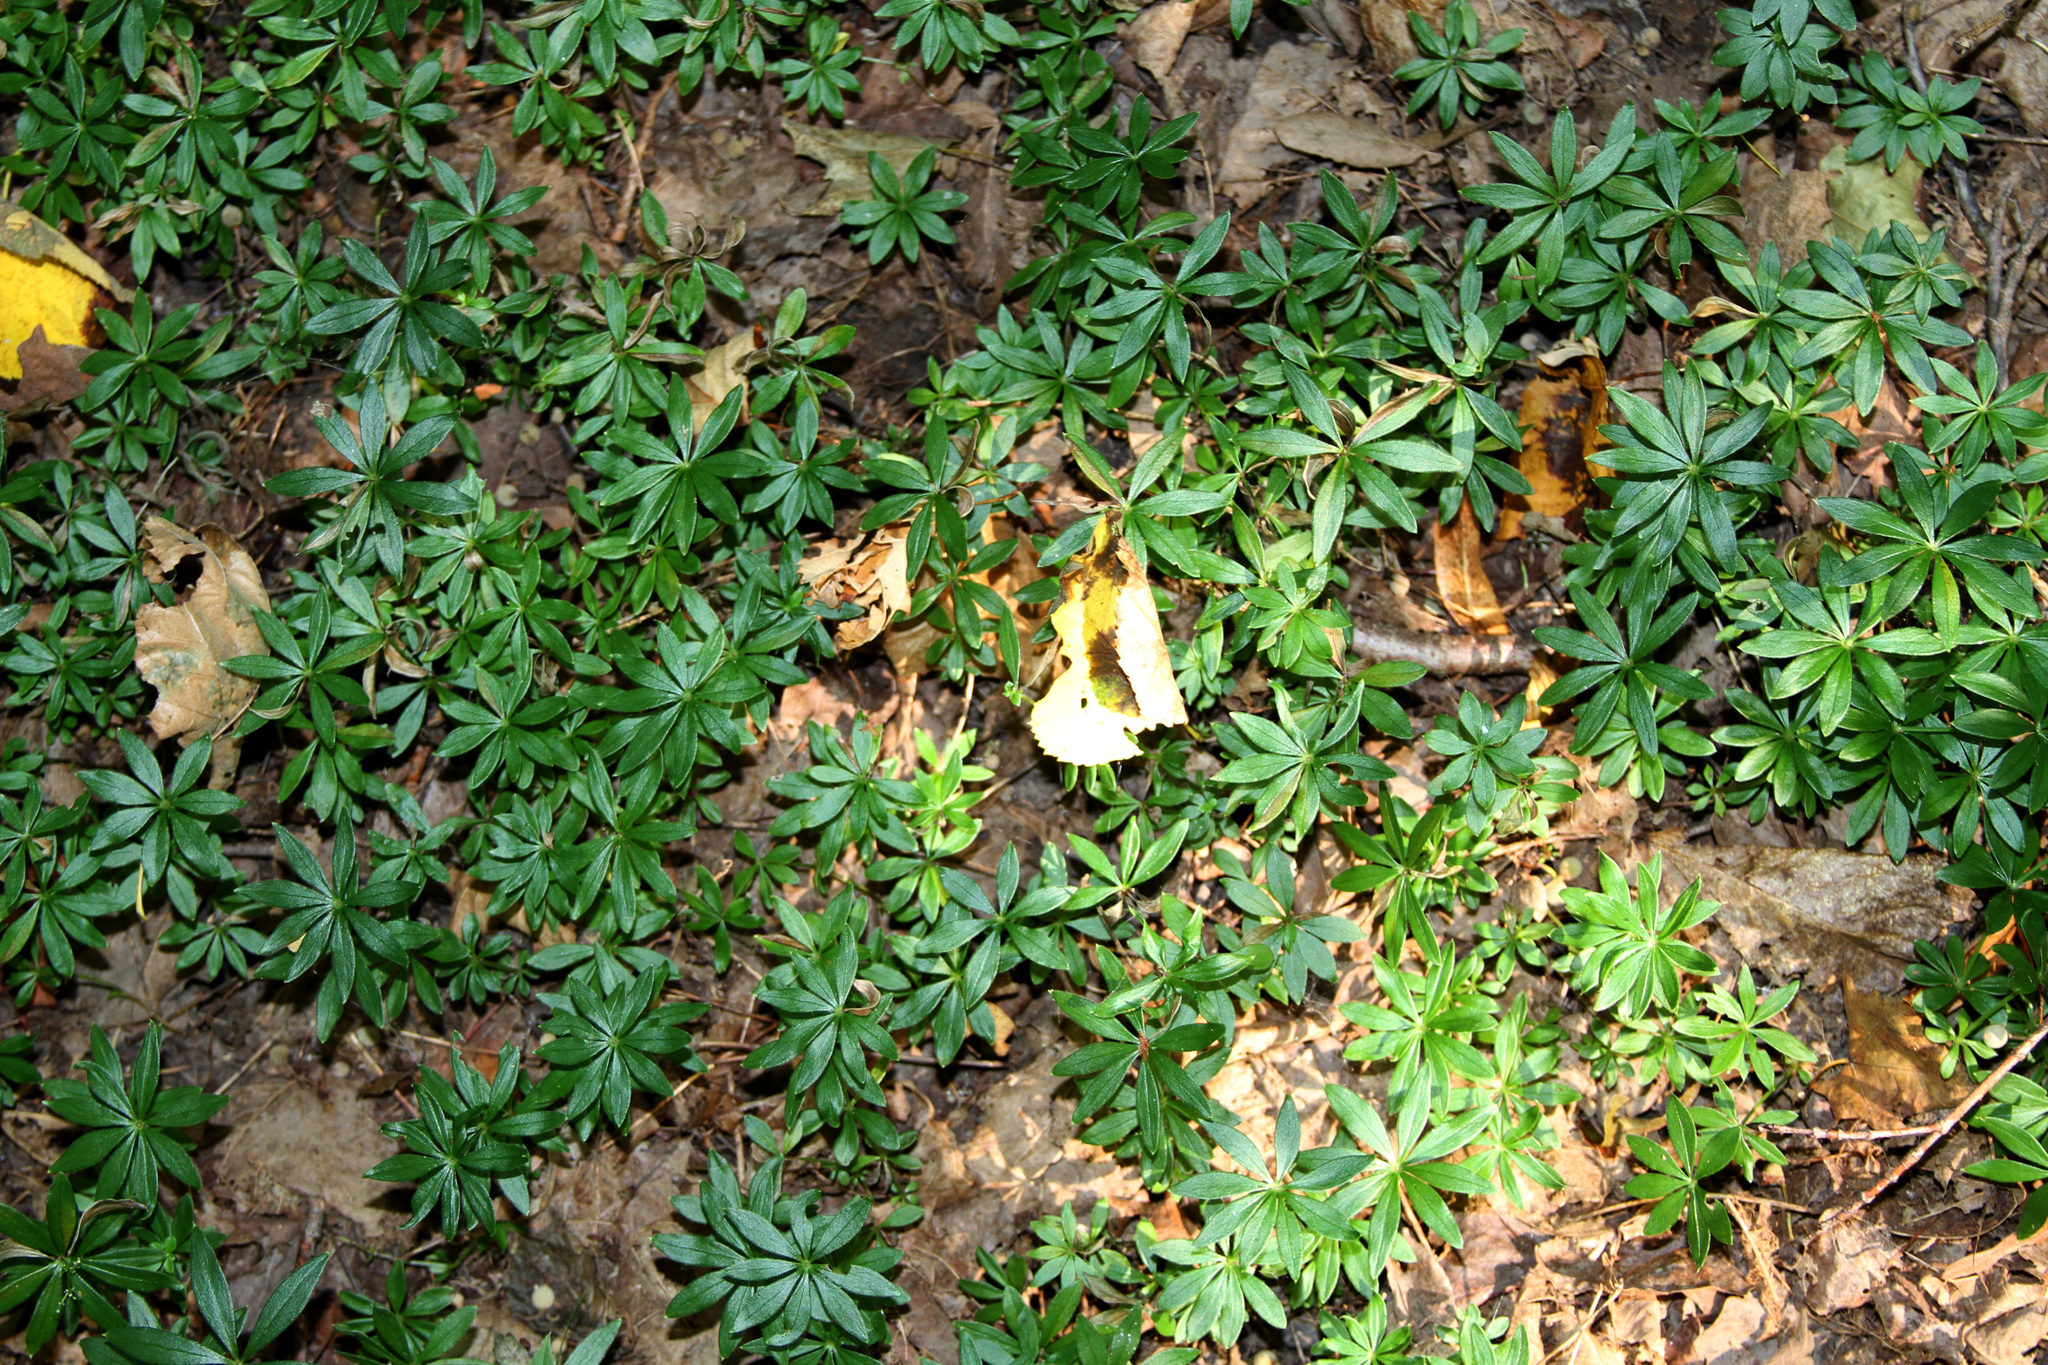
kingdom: Plantae
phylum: Tracheophyta
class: Magnoliopsida
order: Gentianales
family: Rubiaceae
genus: Galium
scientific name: Galium odoratum
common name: Sweet woodruff
